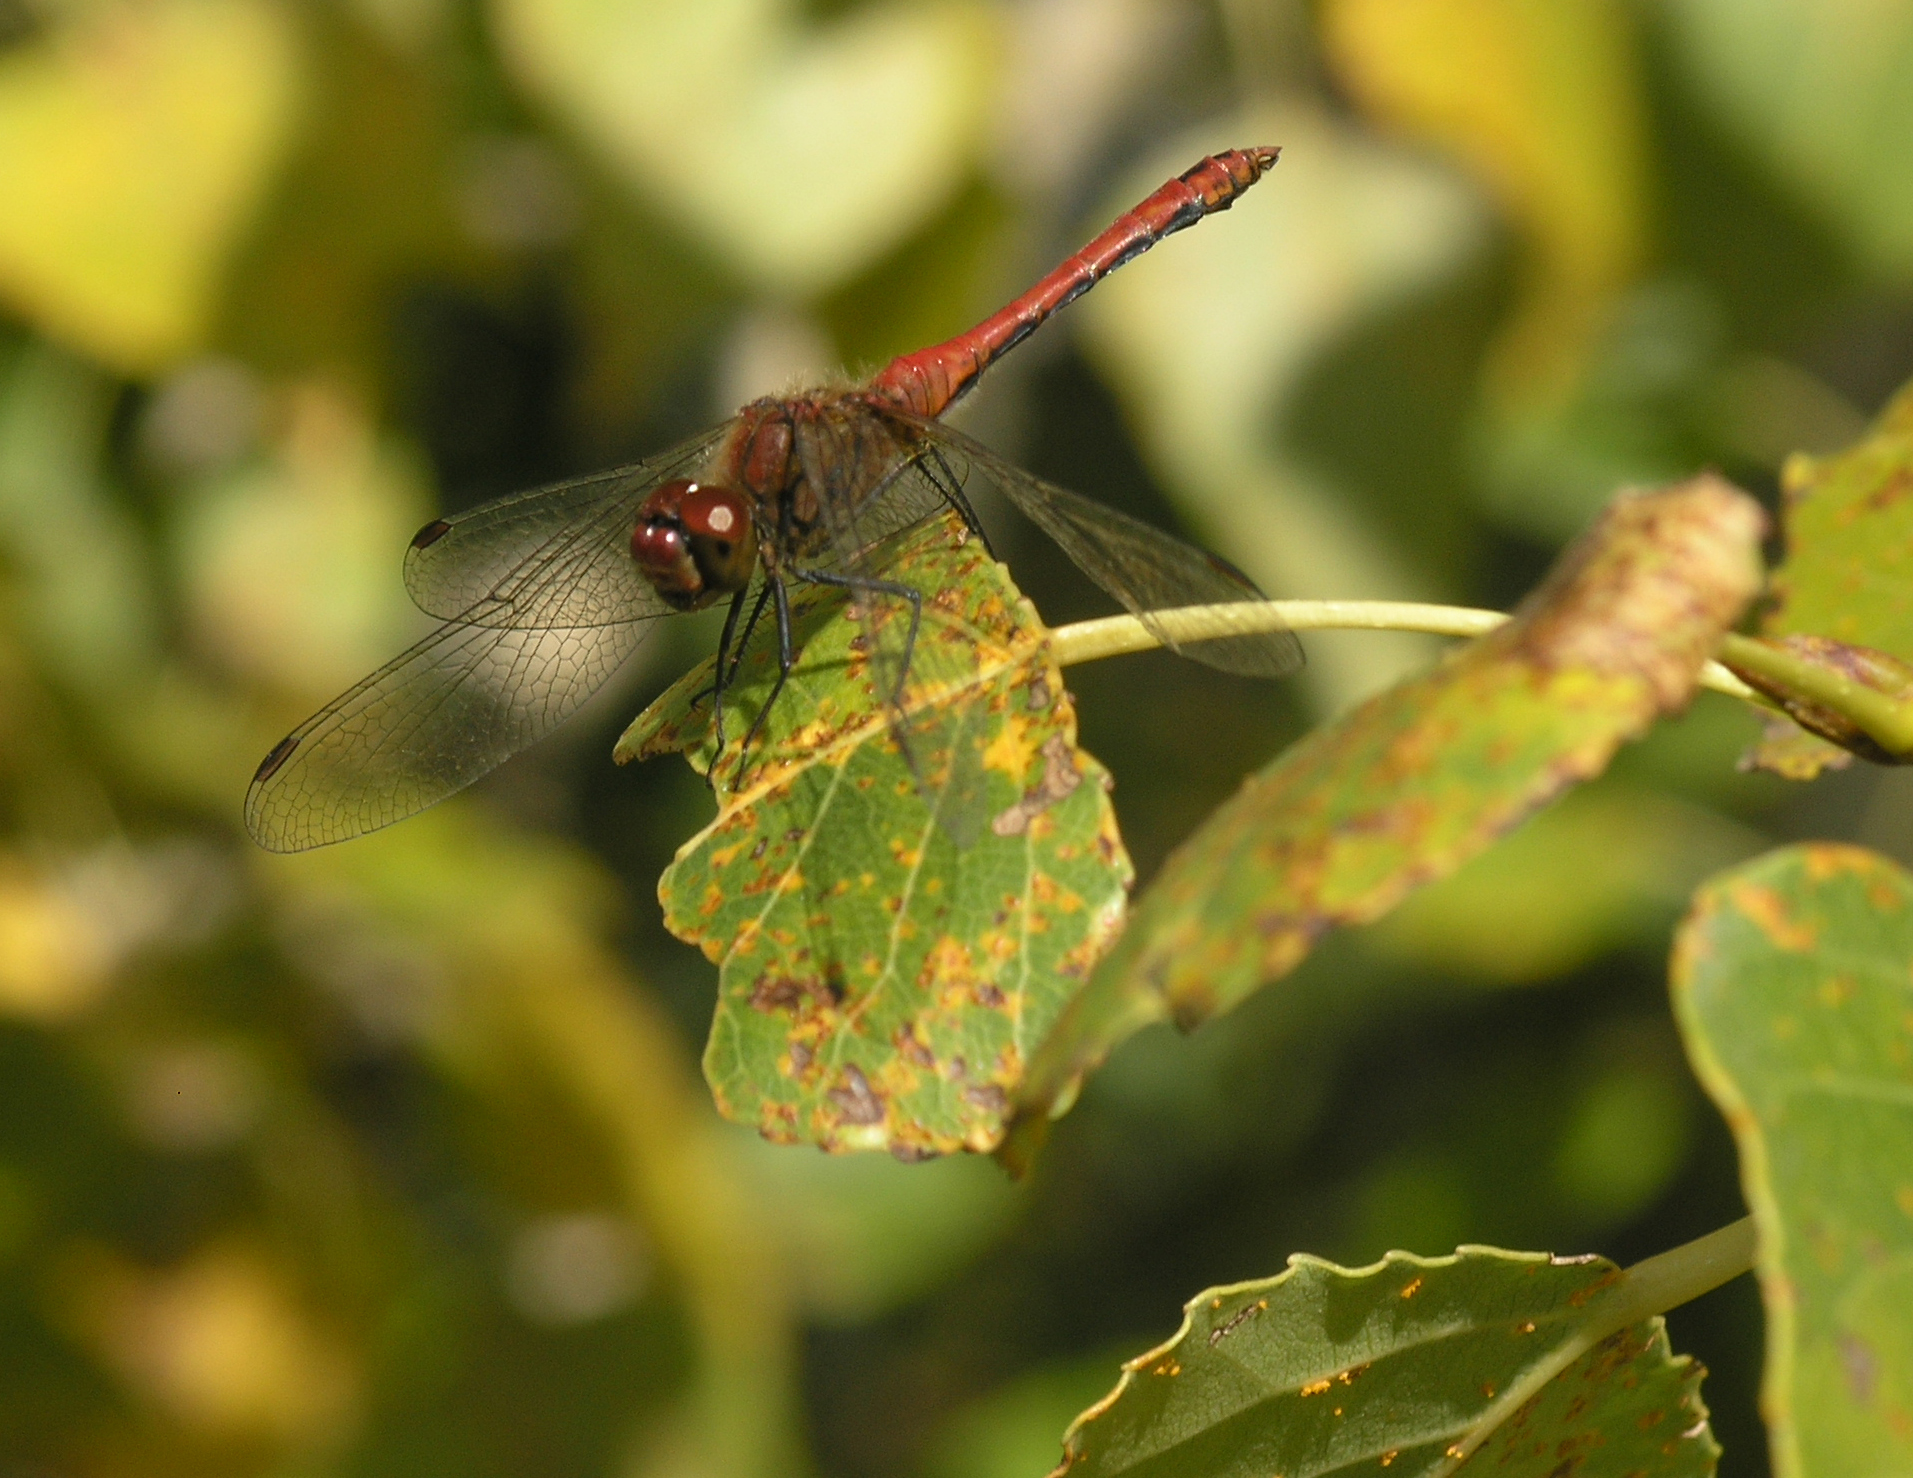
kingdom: Animalia
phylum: Arthropoda
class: Insecta
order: Odonata
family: Libellulidae
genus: Sympetrum
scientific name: Sympetrum sanguineum
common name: Ruddy darter
